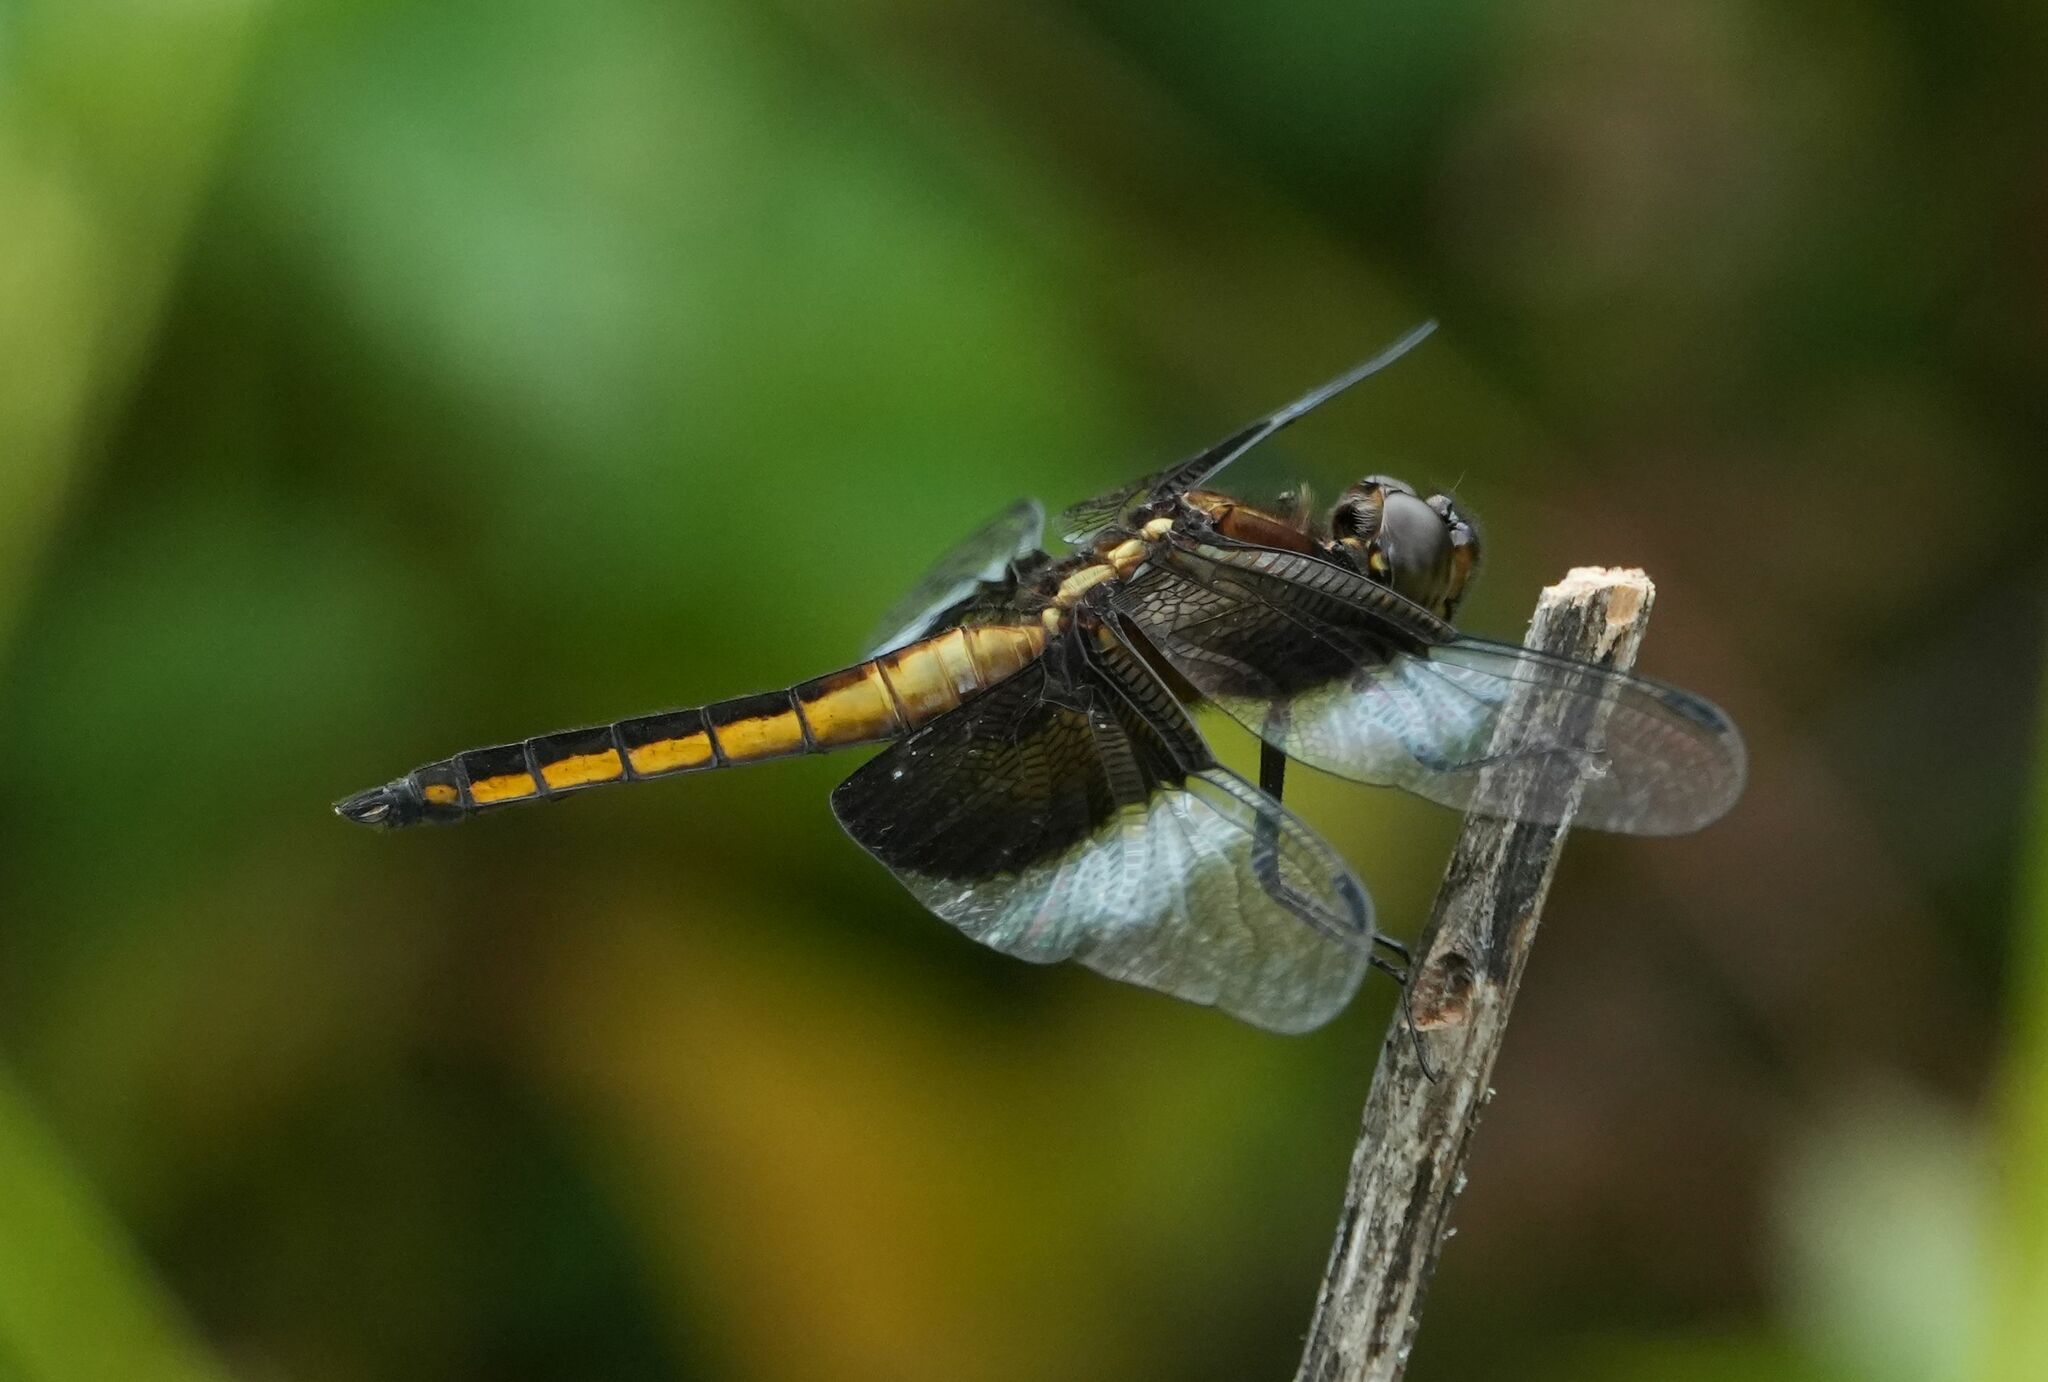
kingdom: Animalia
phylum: Arthropoda
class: Insecta
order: Odonata
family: Libellulidae
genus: Libellula
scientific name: Libellula luctuosa
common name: Widow skimmer
